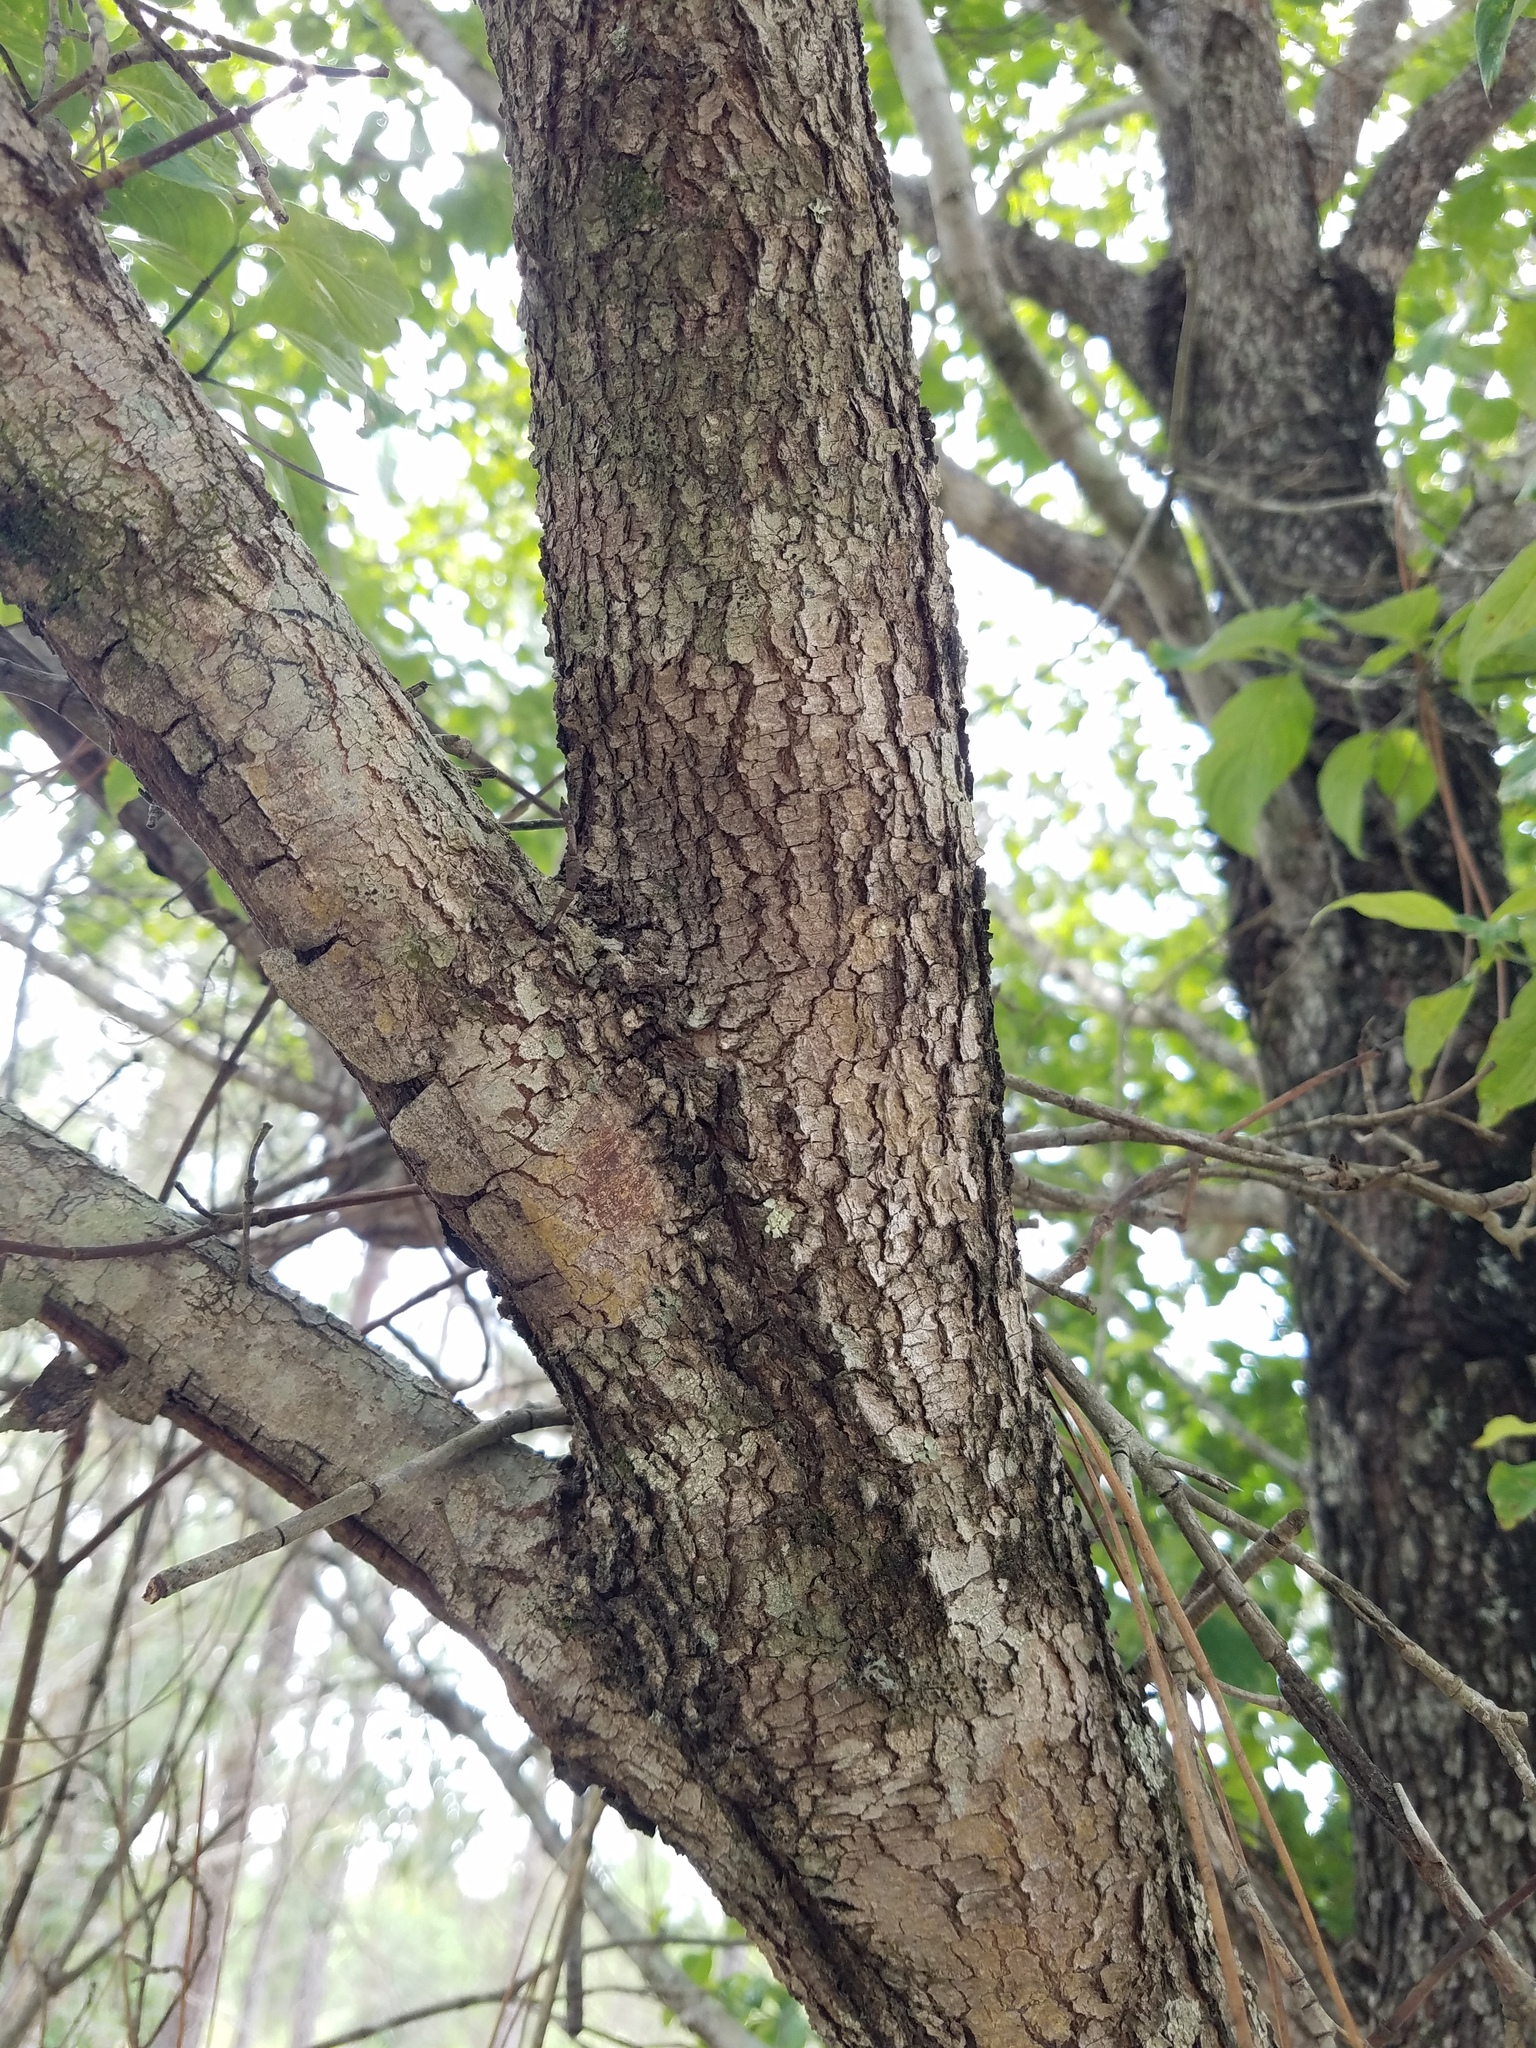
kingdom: Plantae
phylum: Tracheophyta
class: Magnoliopsida
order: Cornales
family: Cornaceae
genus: Cornus
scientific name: Cornus florida
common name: Flowering dogwood
